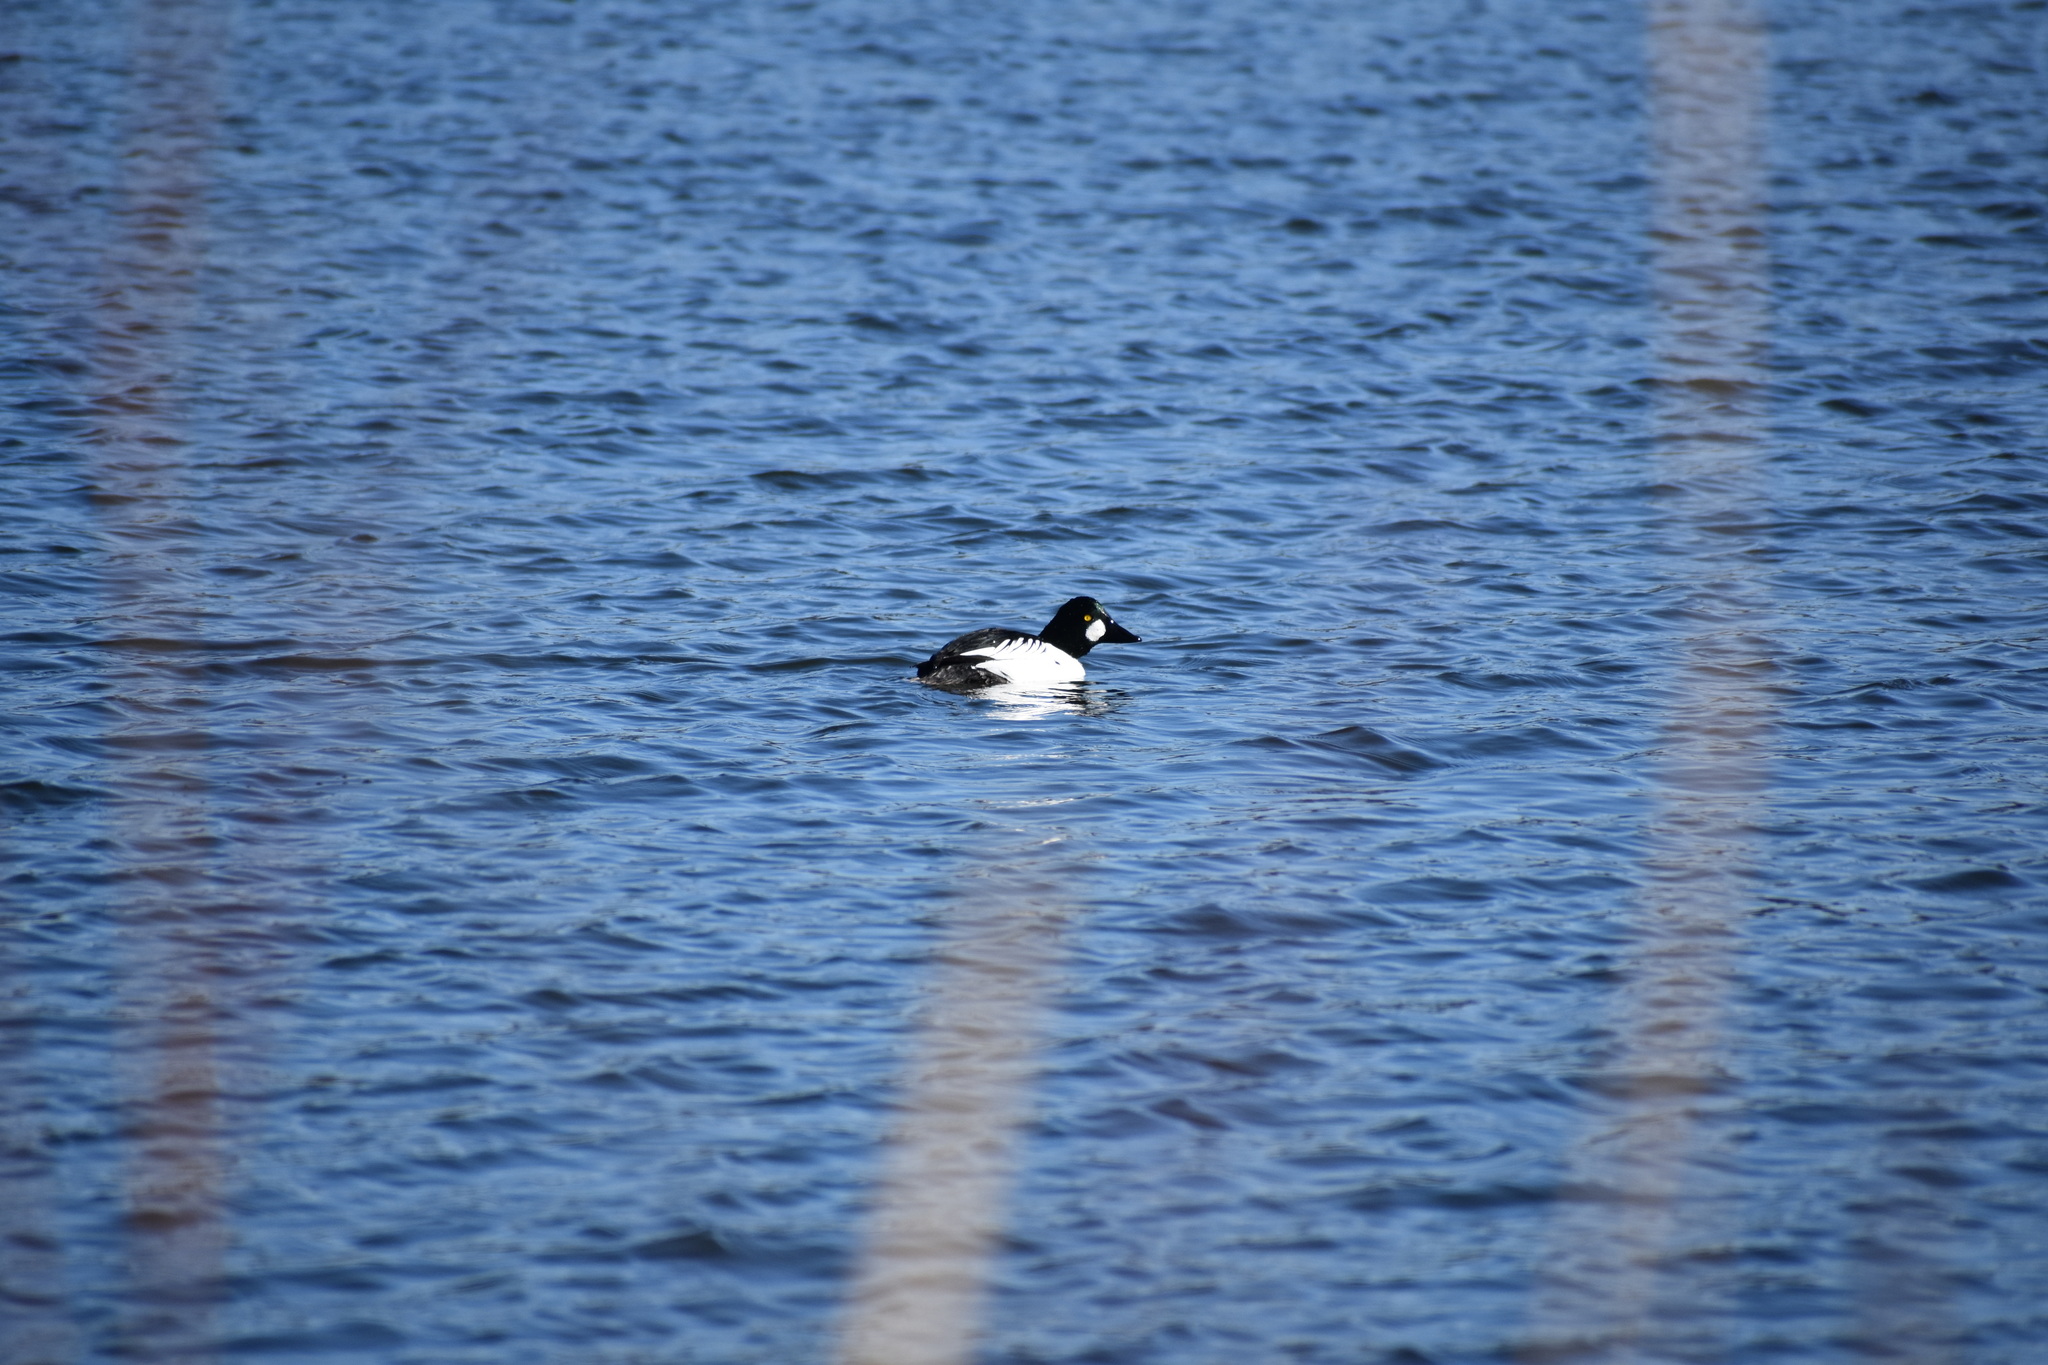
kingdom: Animalia
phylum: Chordata
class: Aves
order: Anseriformes
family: Anatidae
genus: Bucephala
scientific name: Bucephala clangula
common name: Common goldeneye
